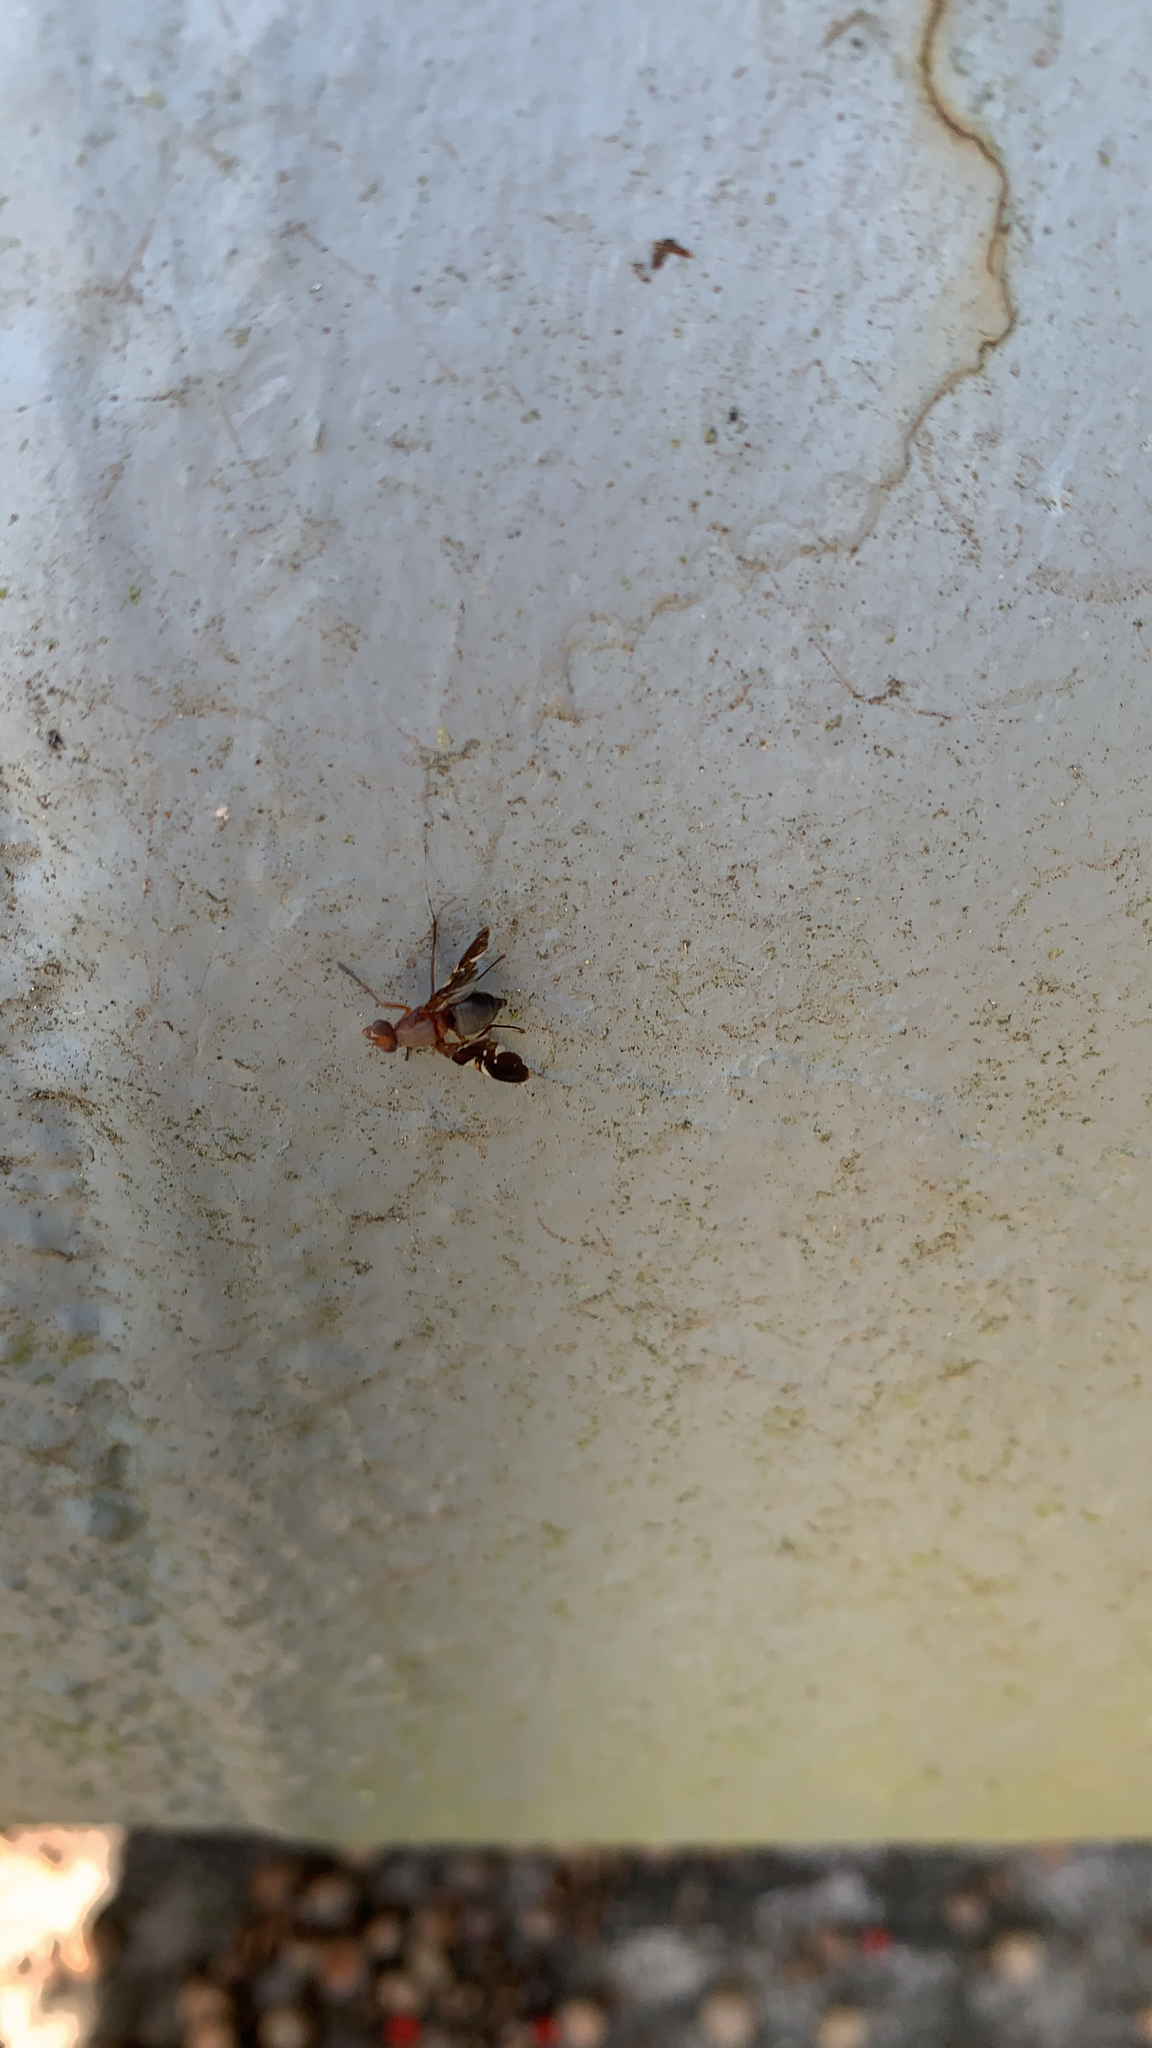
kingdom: Animalia
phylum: Arthropoda
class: Insecta
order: Diptera
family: Ulidiidae
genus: Delphinia
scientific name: Delphinia picta
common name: Common picture-winged fly
